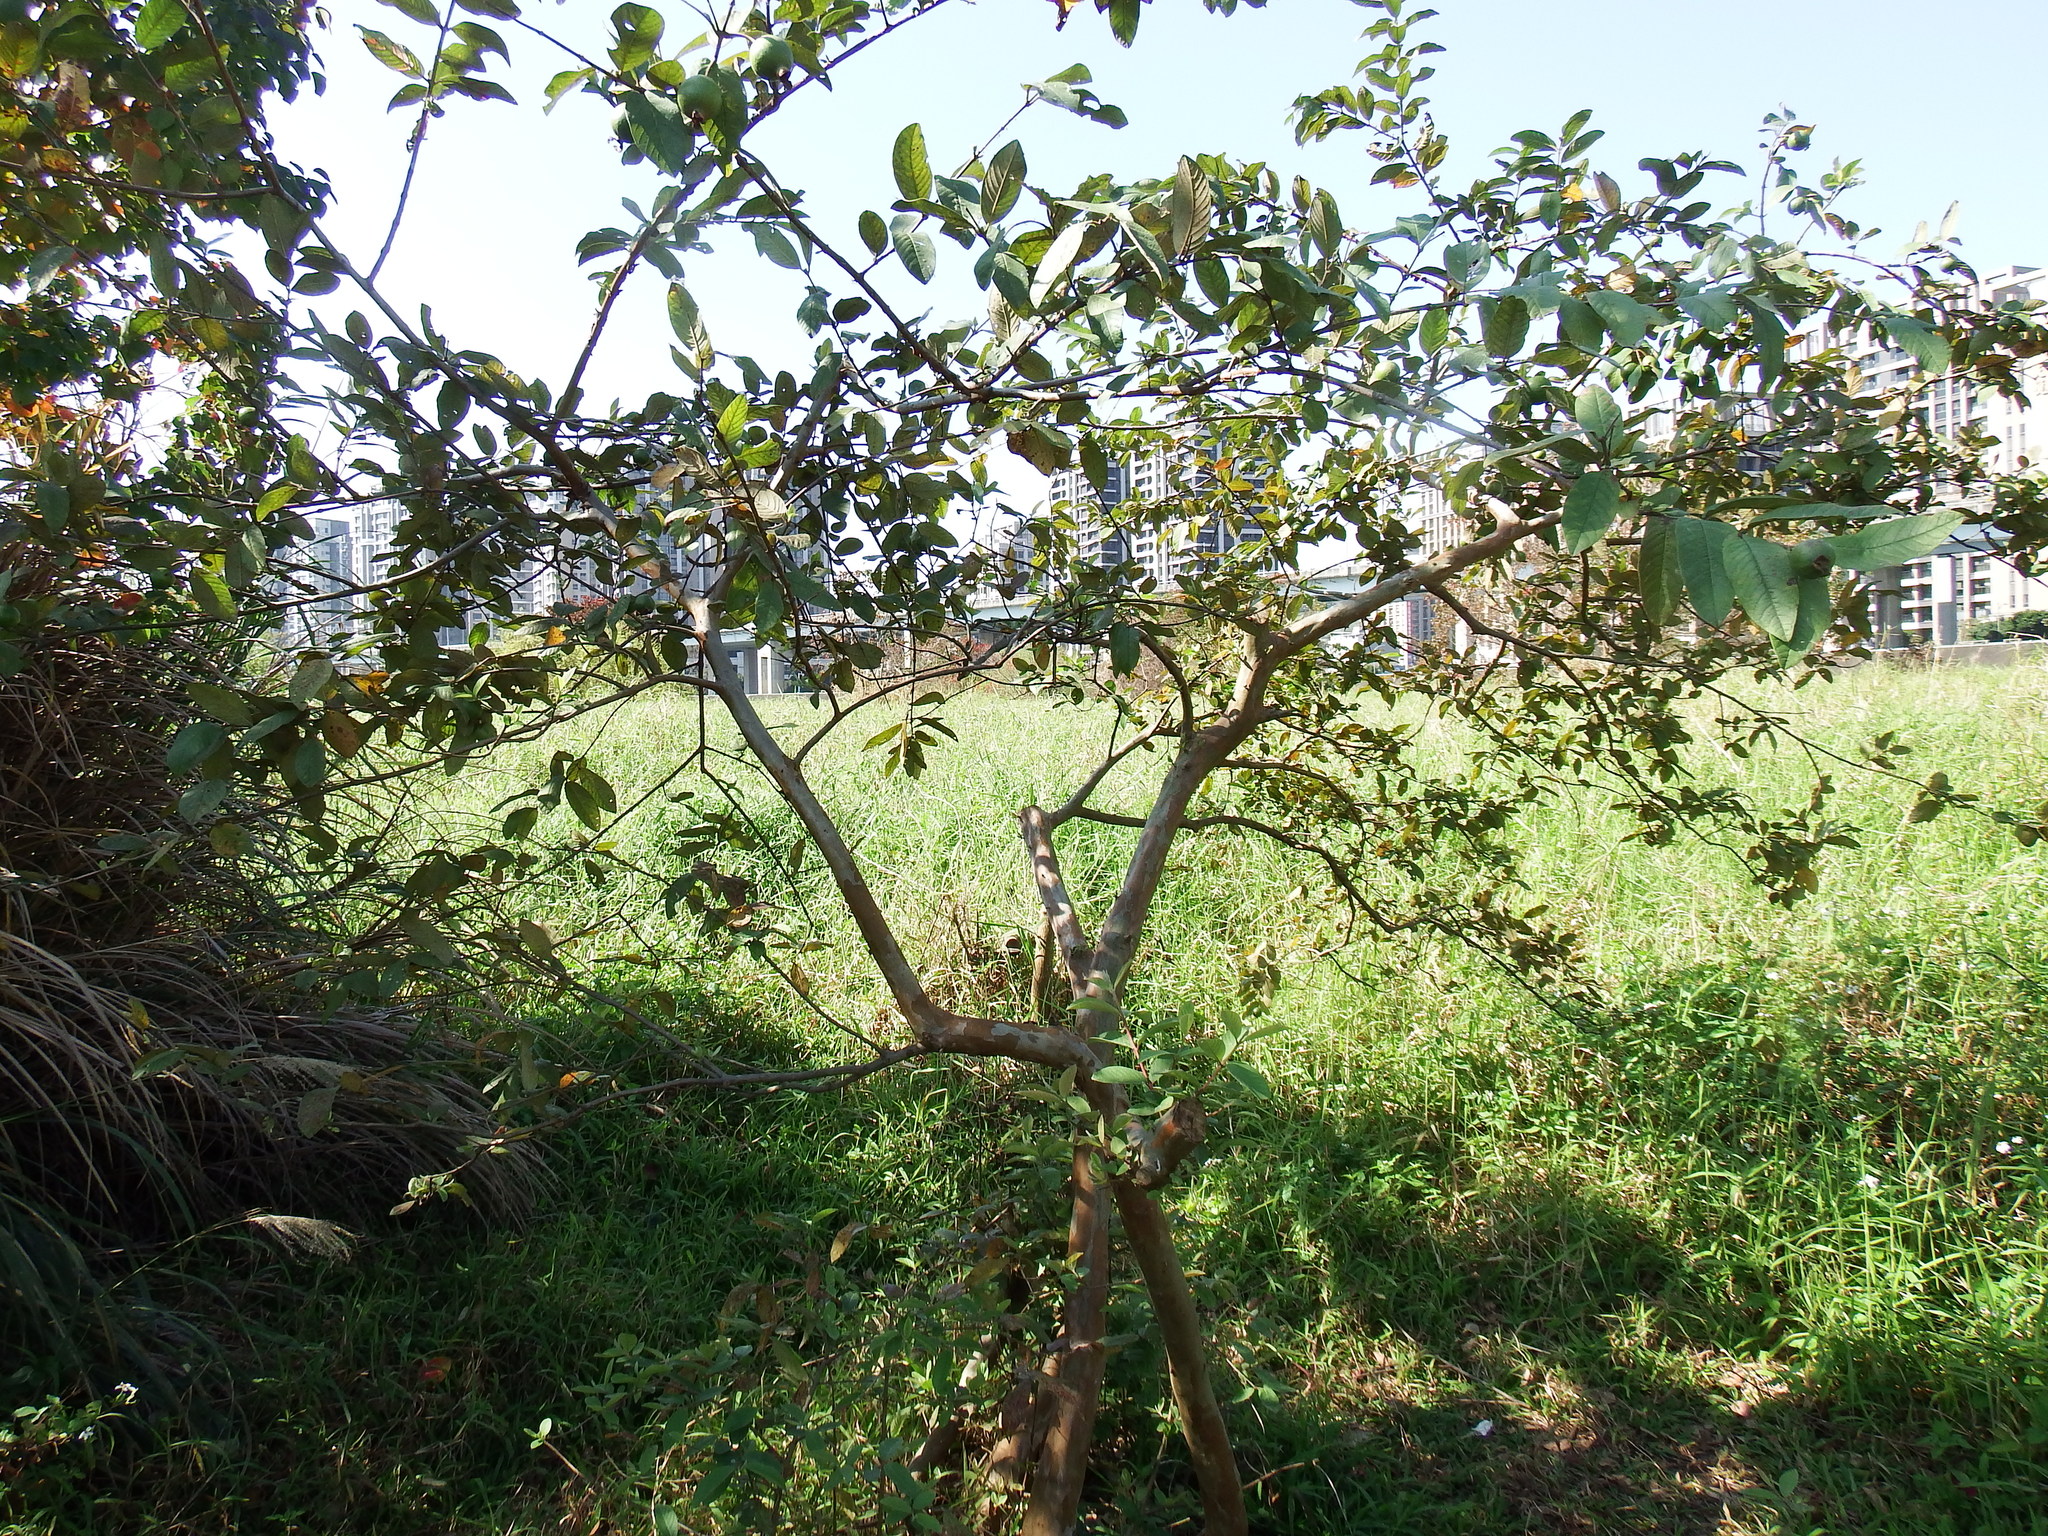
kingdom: Plantae
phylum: Tracheophyta
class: Magnoliopsida
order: Myrtales
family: Myrtaceae
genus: Psidium
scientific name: Psidium guajava
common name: Guava
